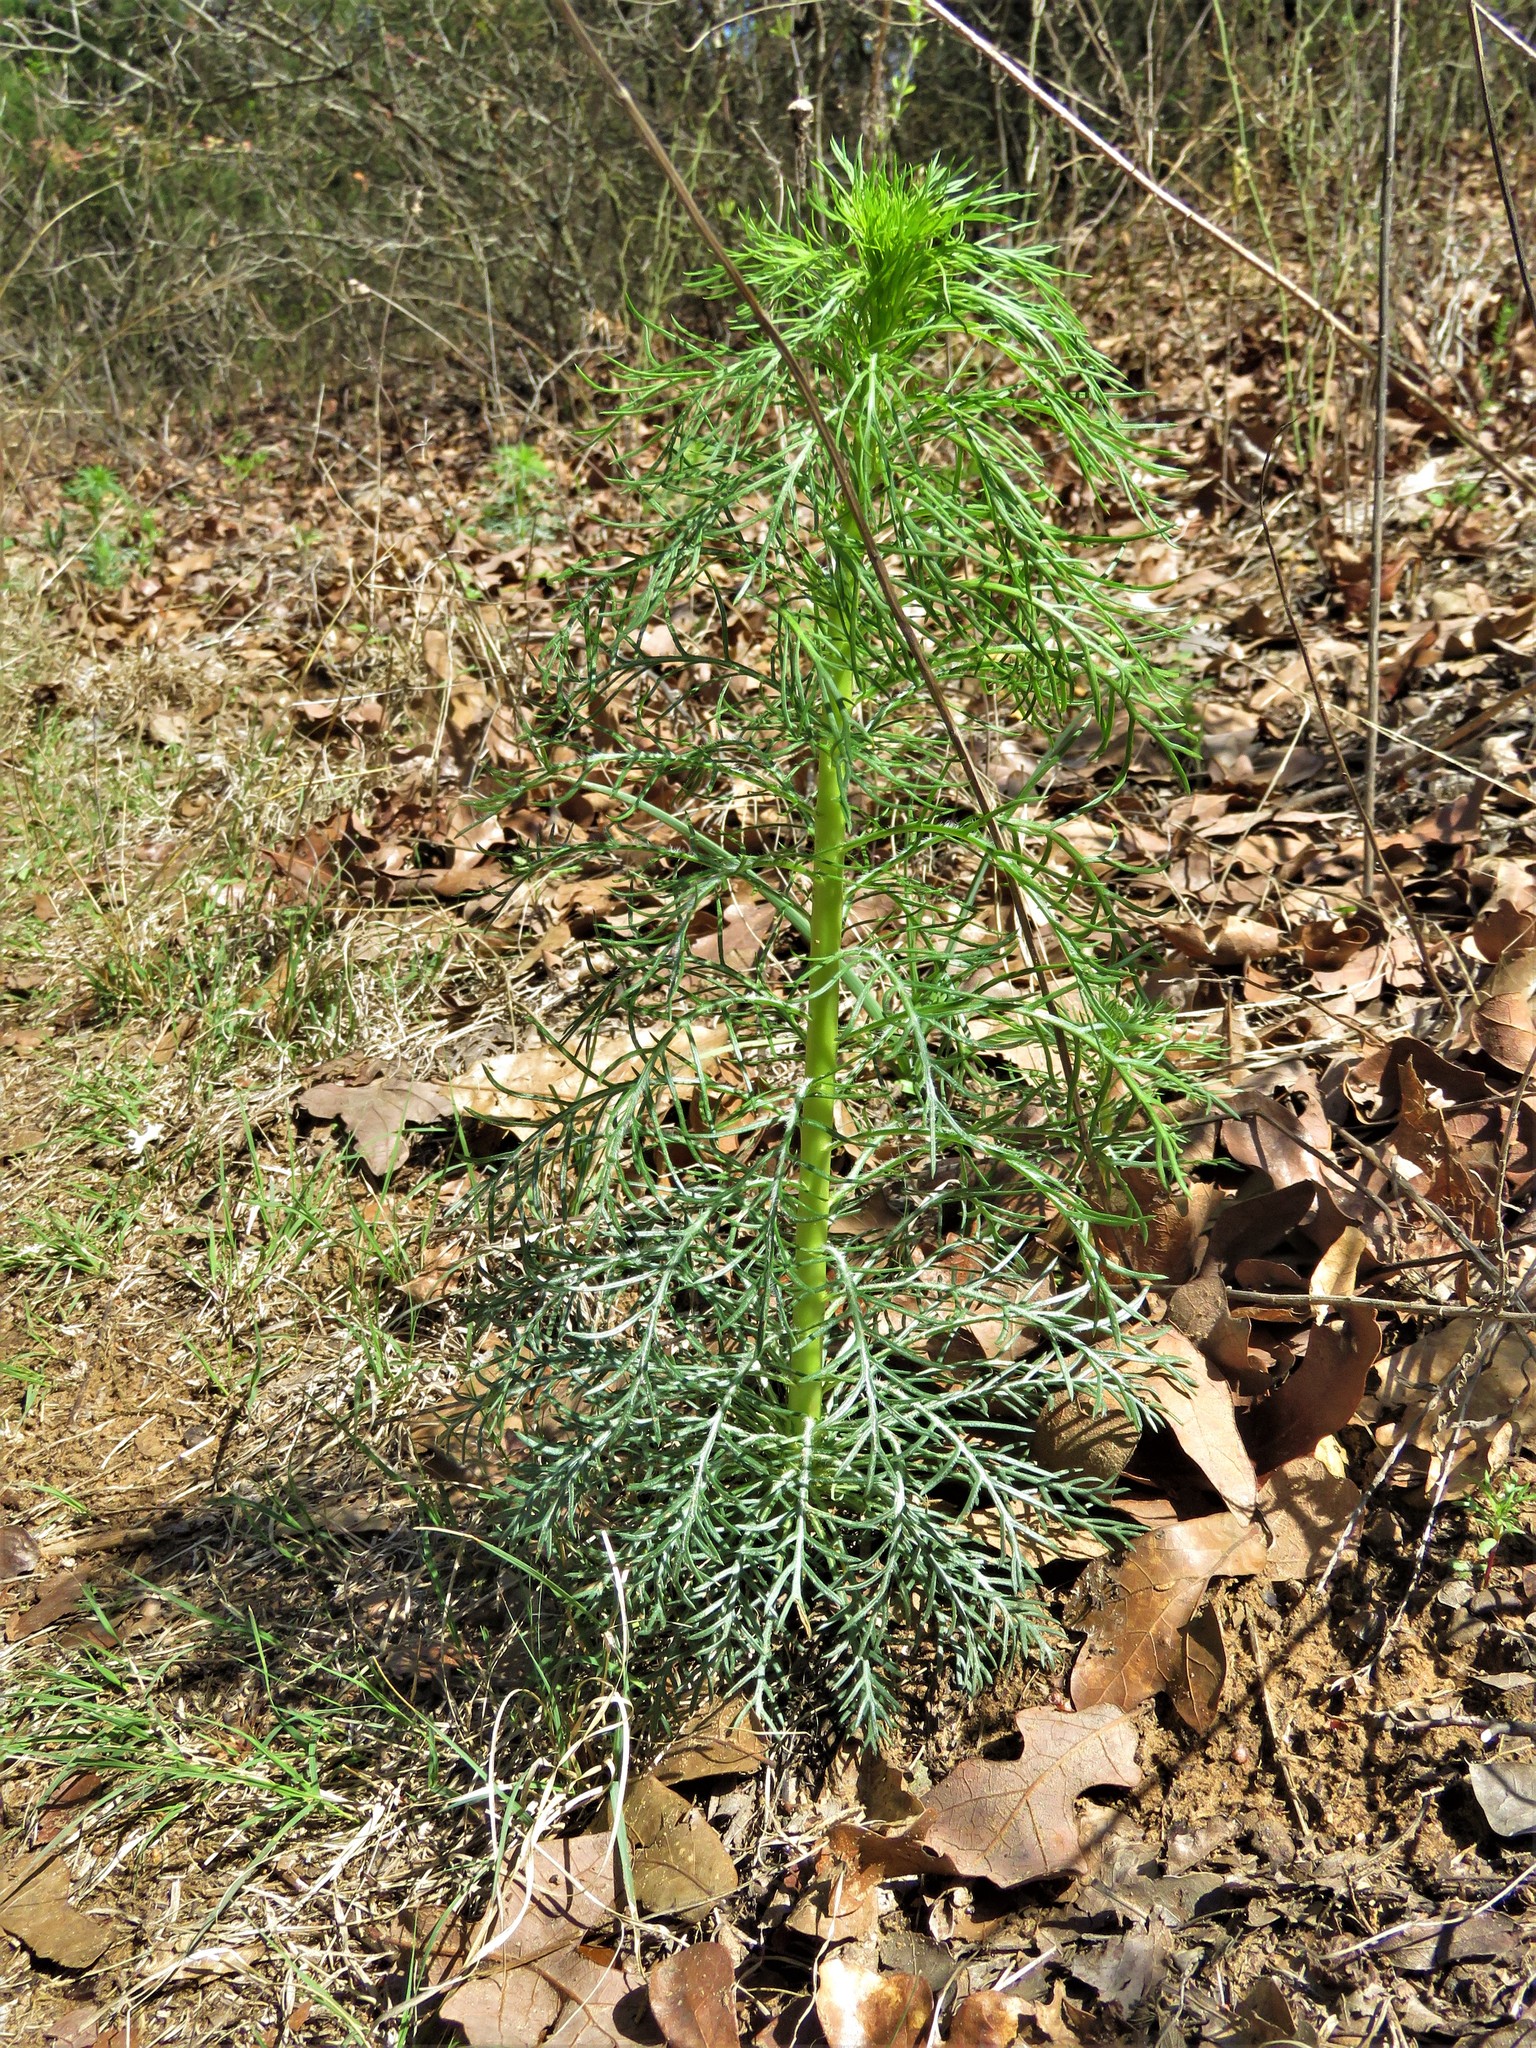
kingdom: Plantae
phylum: Tracheophyta
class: Magnoliopsida
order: Ericales
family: Polemoniaceae
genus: Ipomopsis
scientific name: Ipomopsis rubra
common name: Skyrocket
